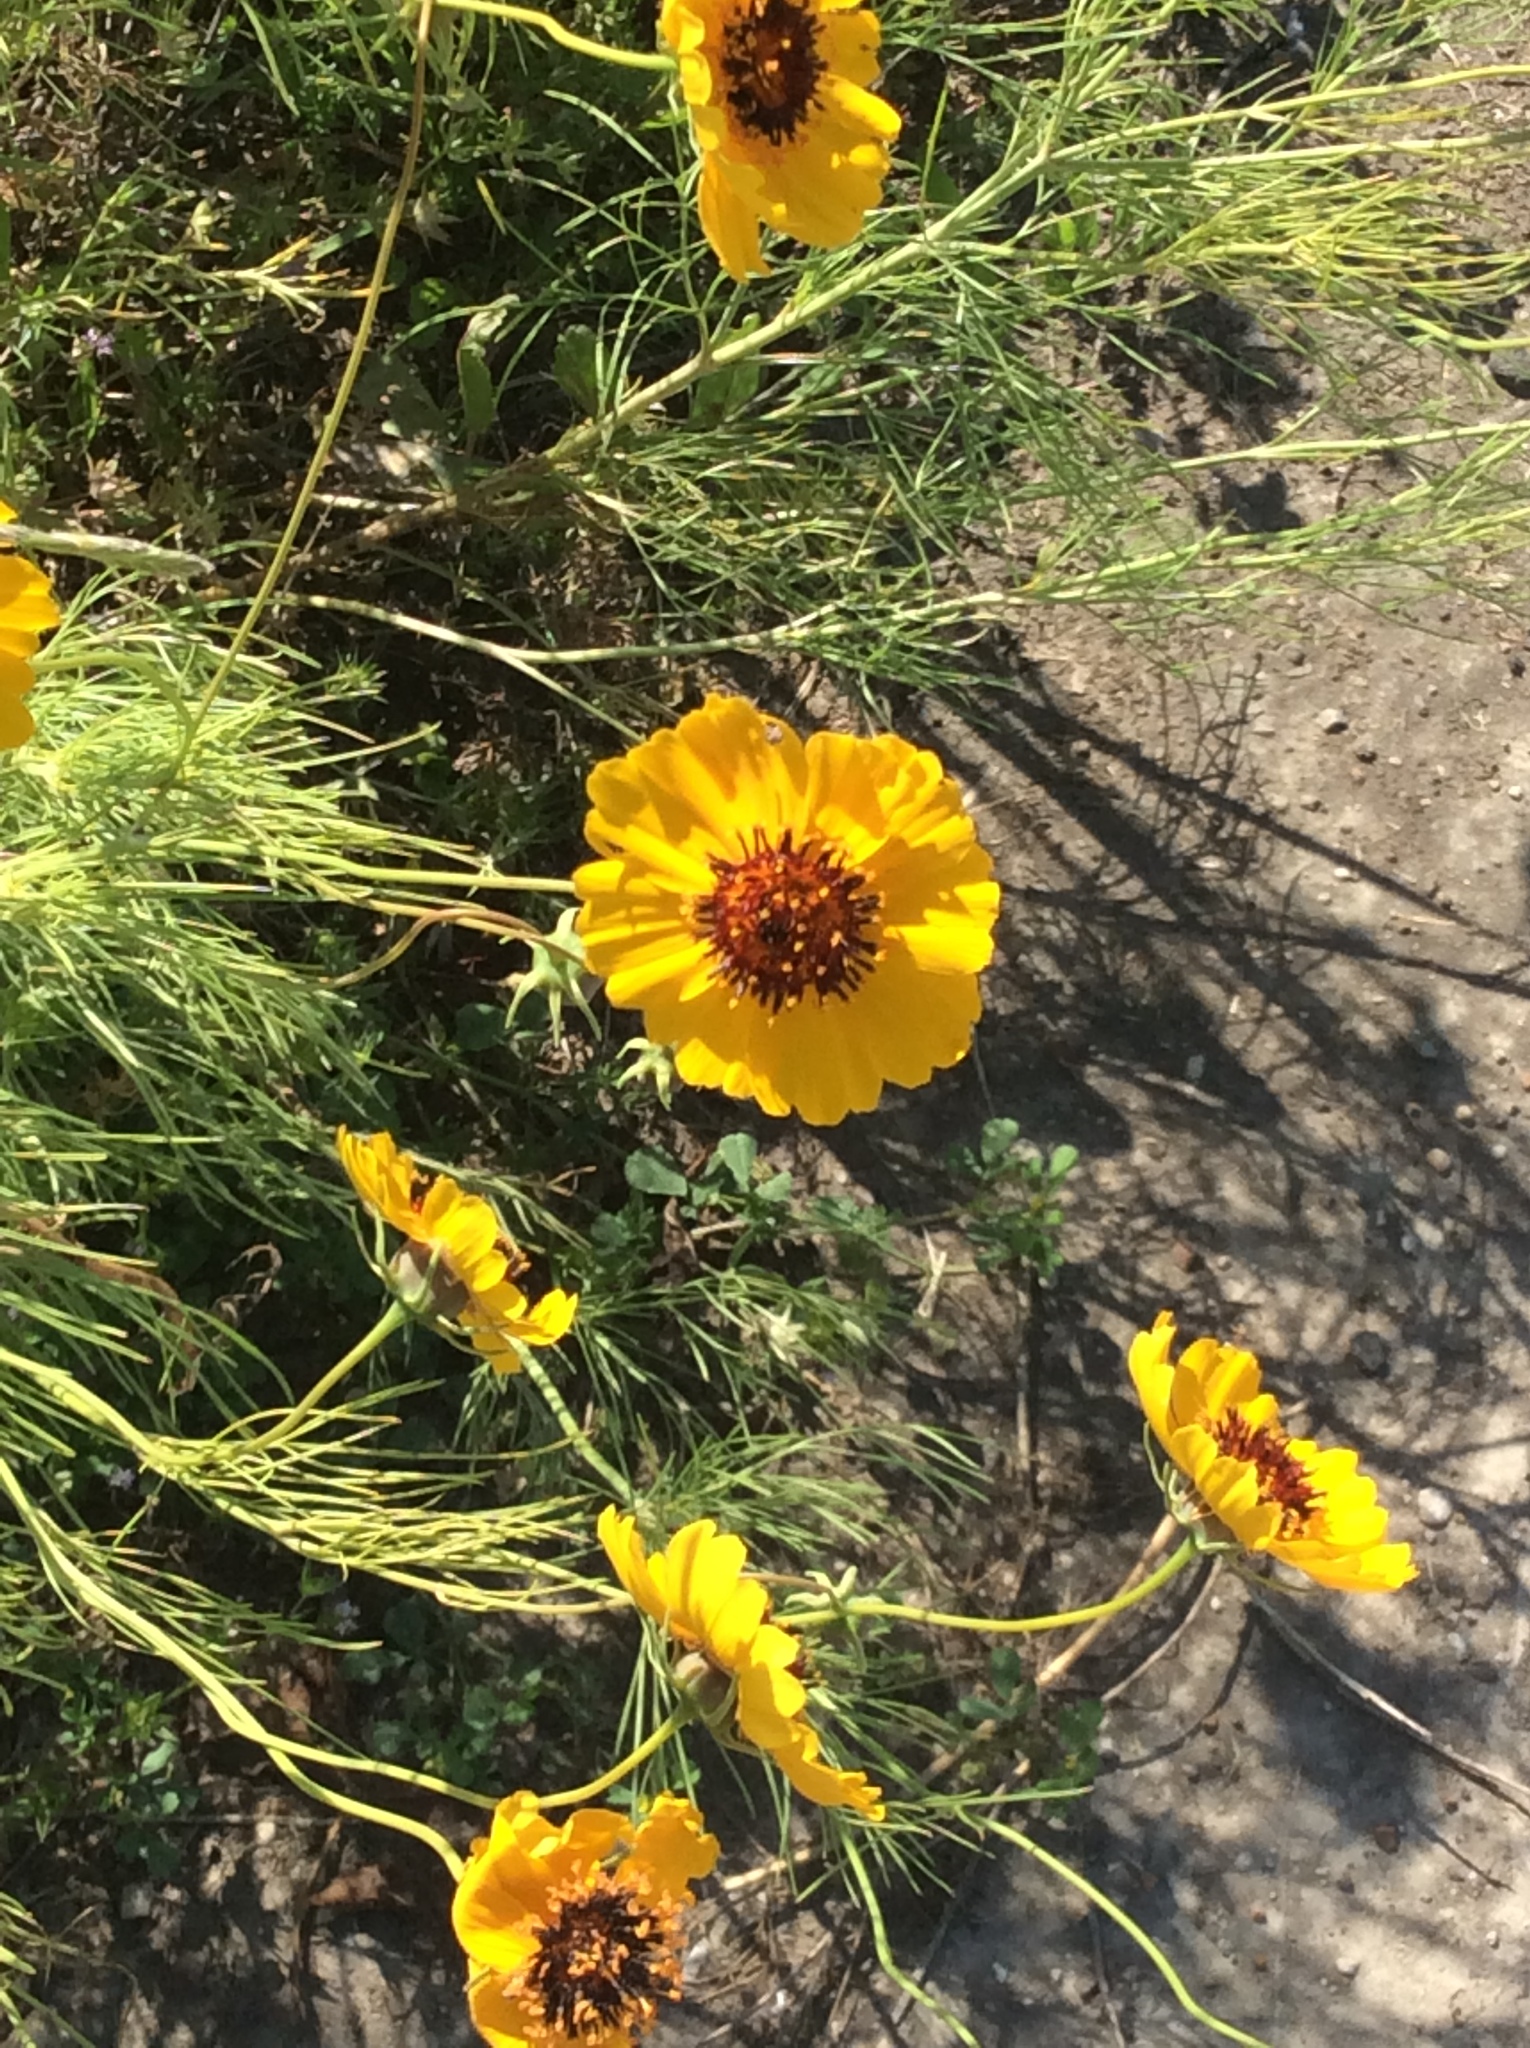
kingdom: Plantae
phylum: Tracheophyta
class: Magnoliopsida
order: Asterales
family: Asteraceae
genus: Thelesperma
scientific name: Thelesperma filifolium
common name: Stiff greenthread
